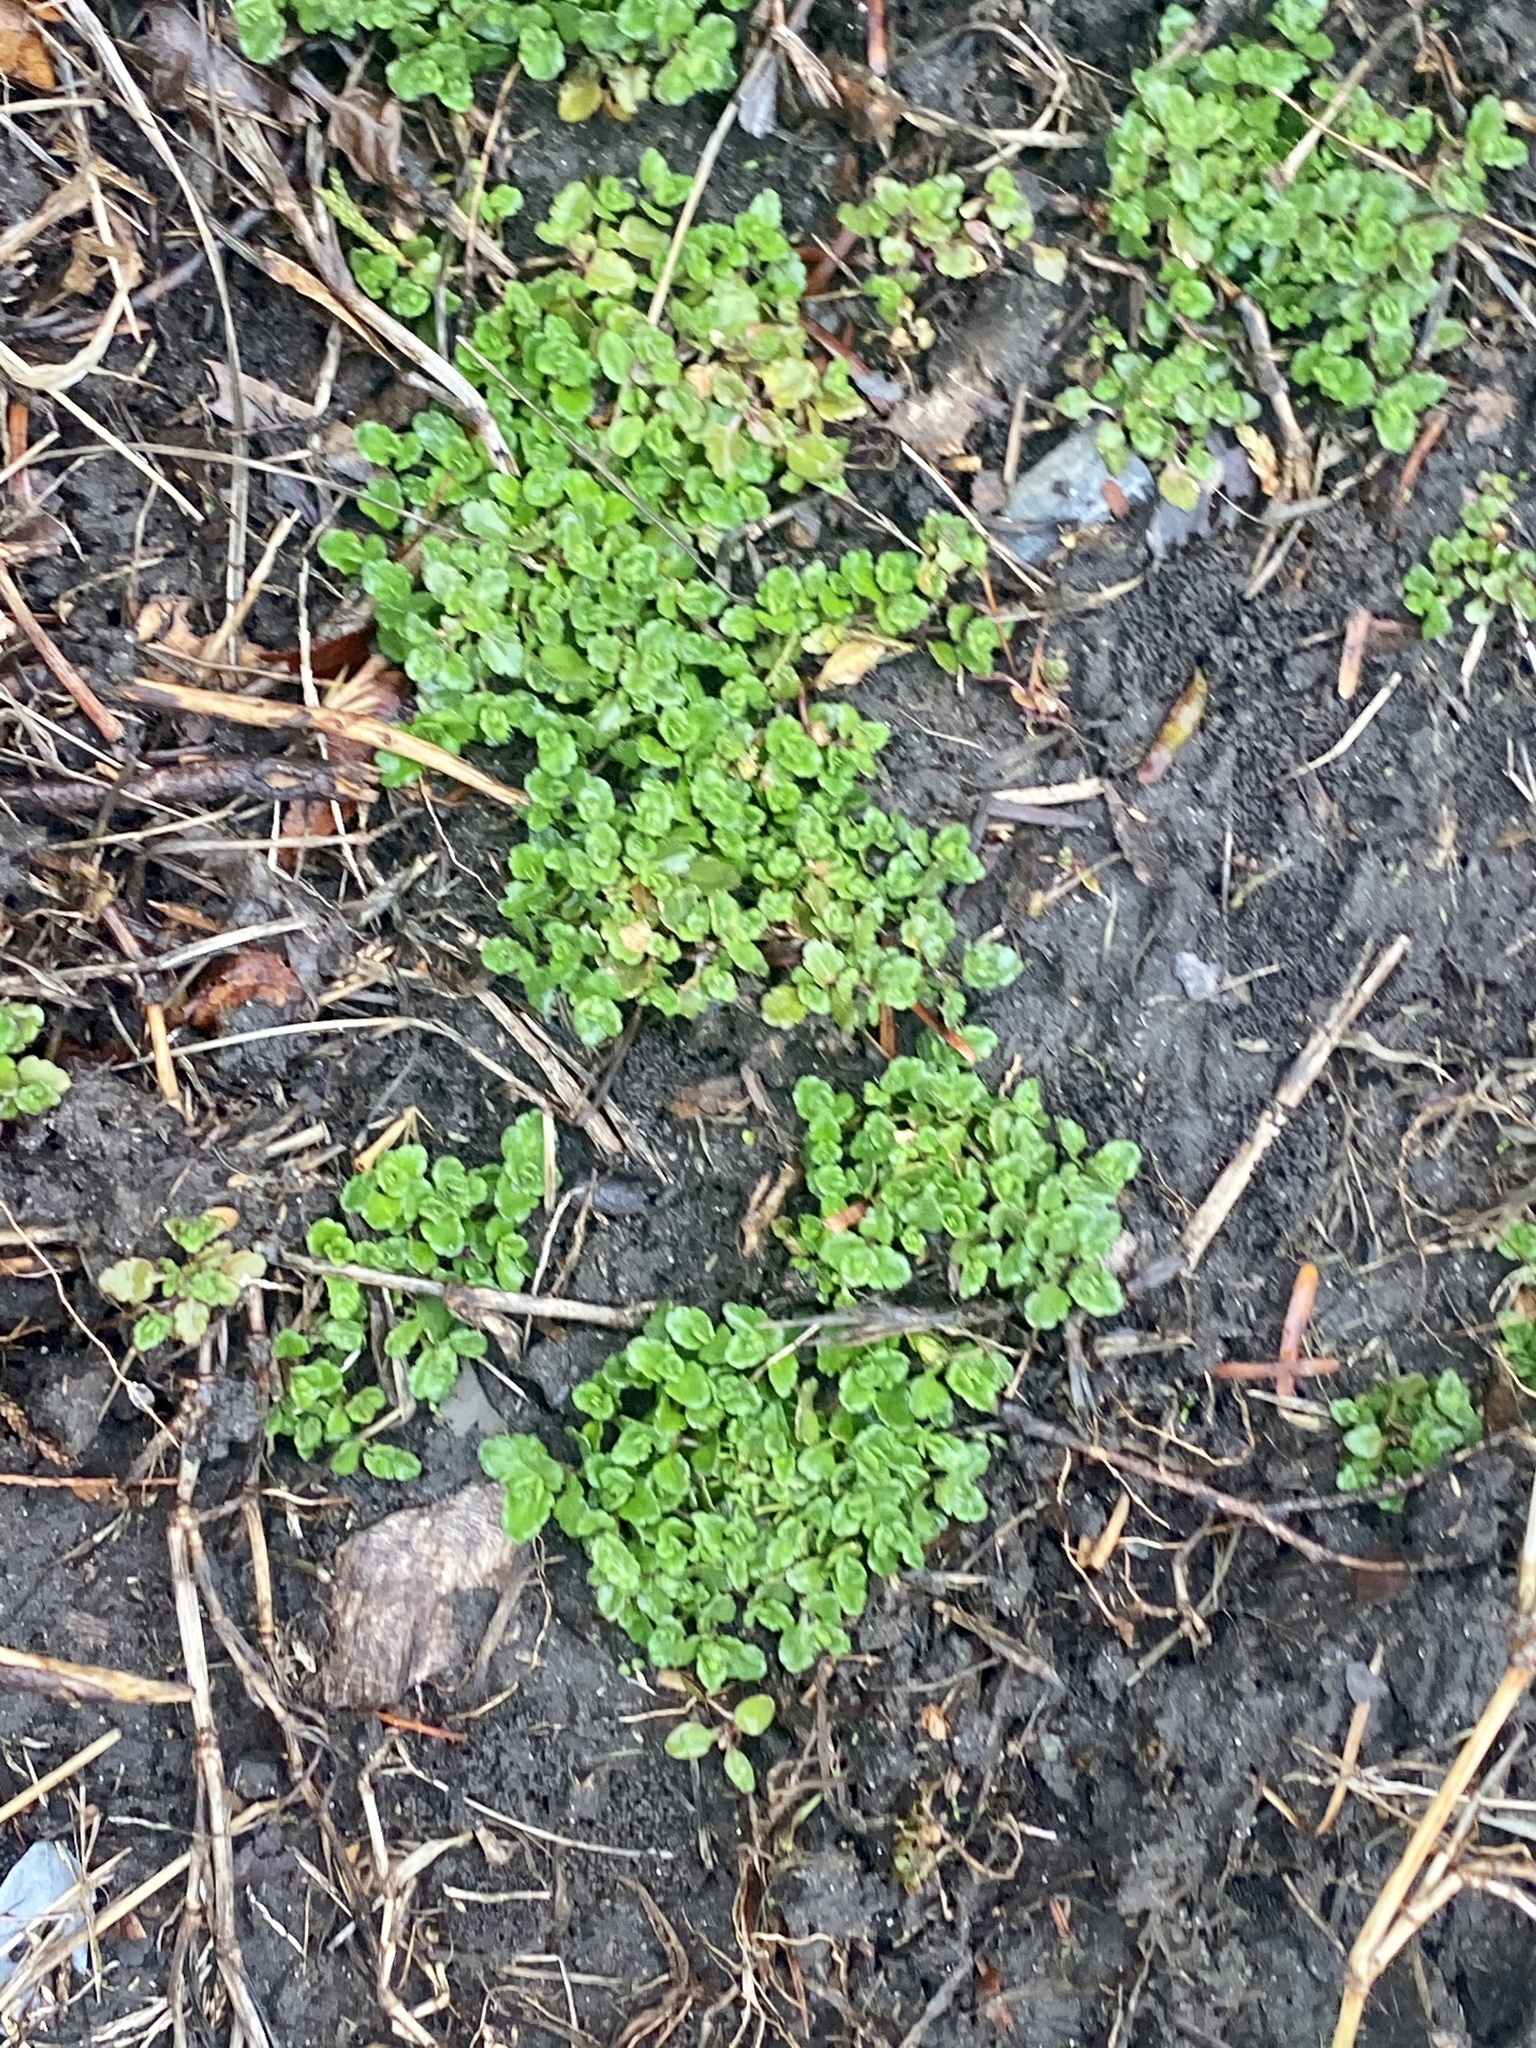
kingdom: Plantae
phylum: Tracheophyta
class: Magnoliopsida
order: Lamiales
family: Plantaginaceae
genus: Veronica
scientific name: Veronica arvensis
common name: Corn speedwell
